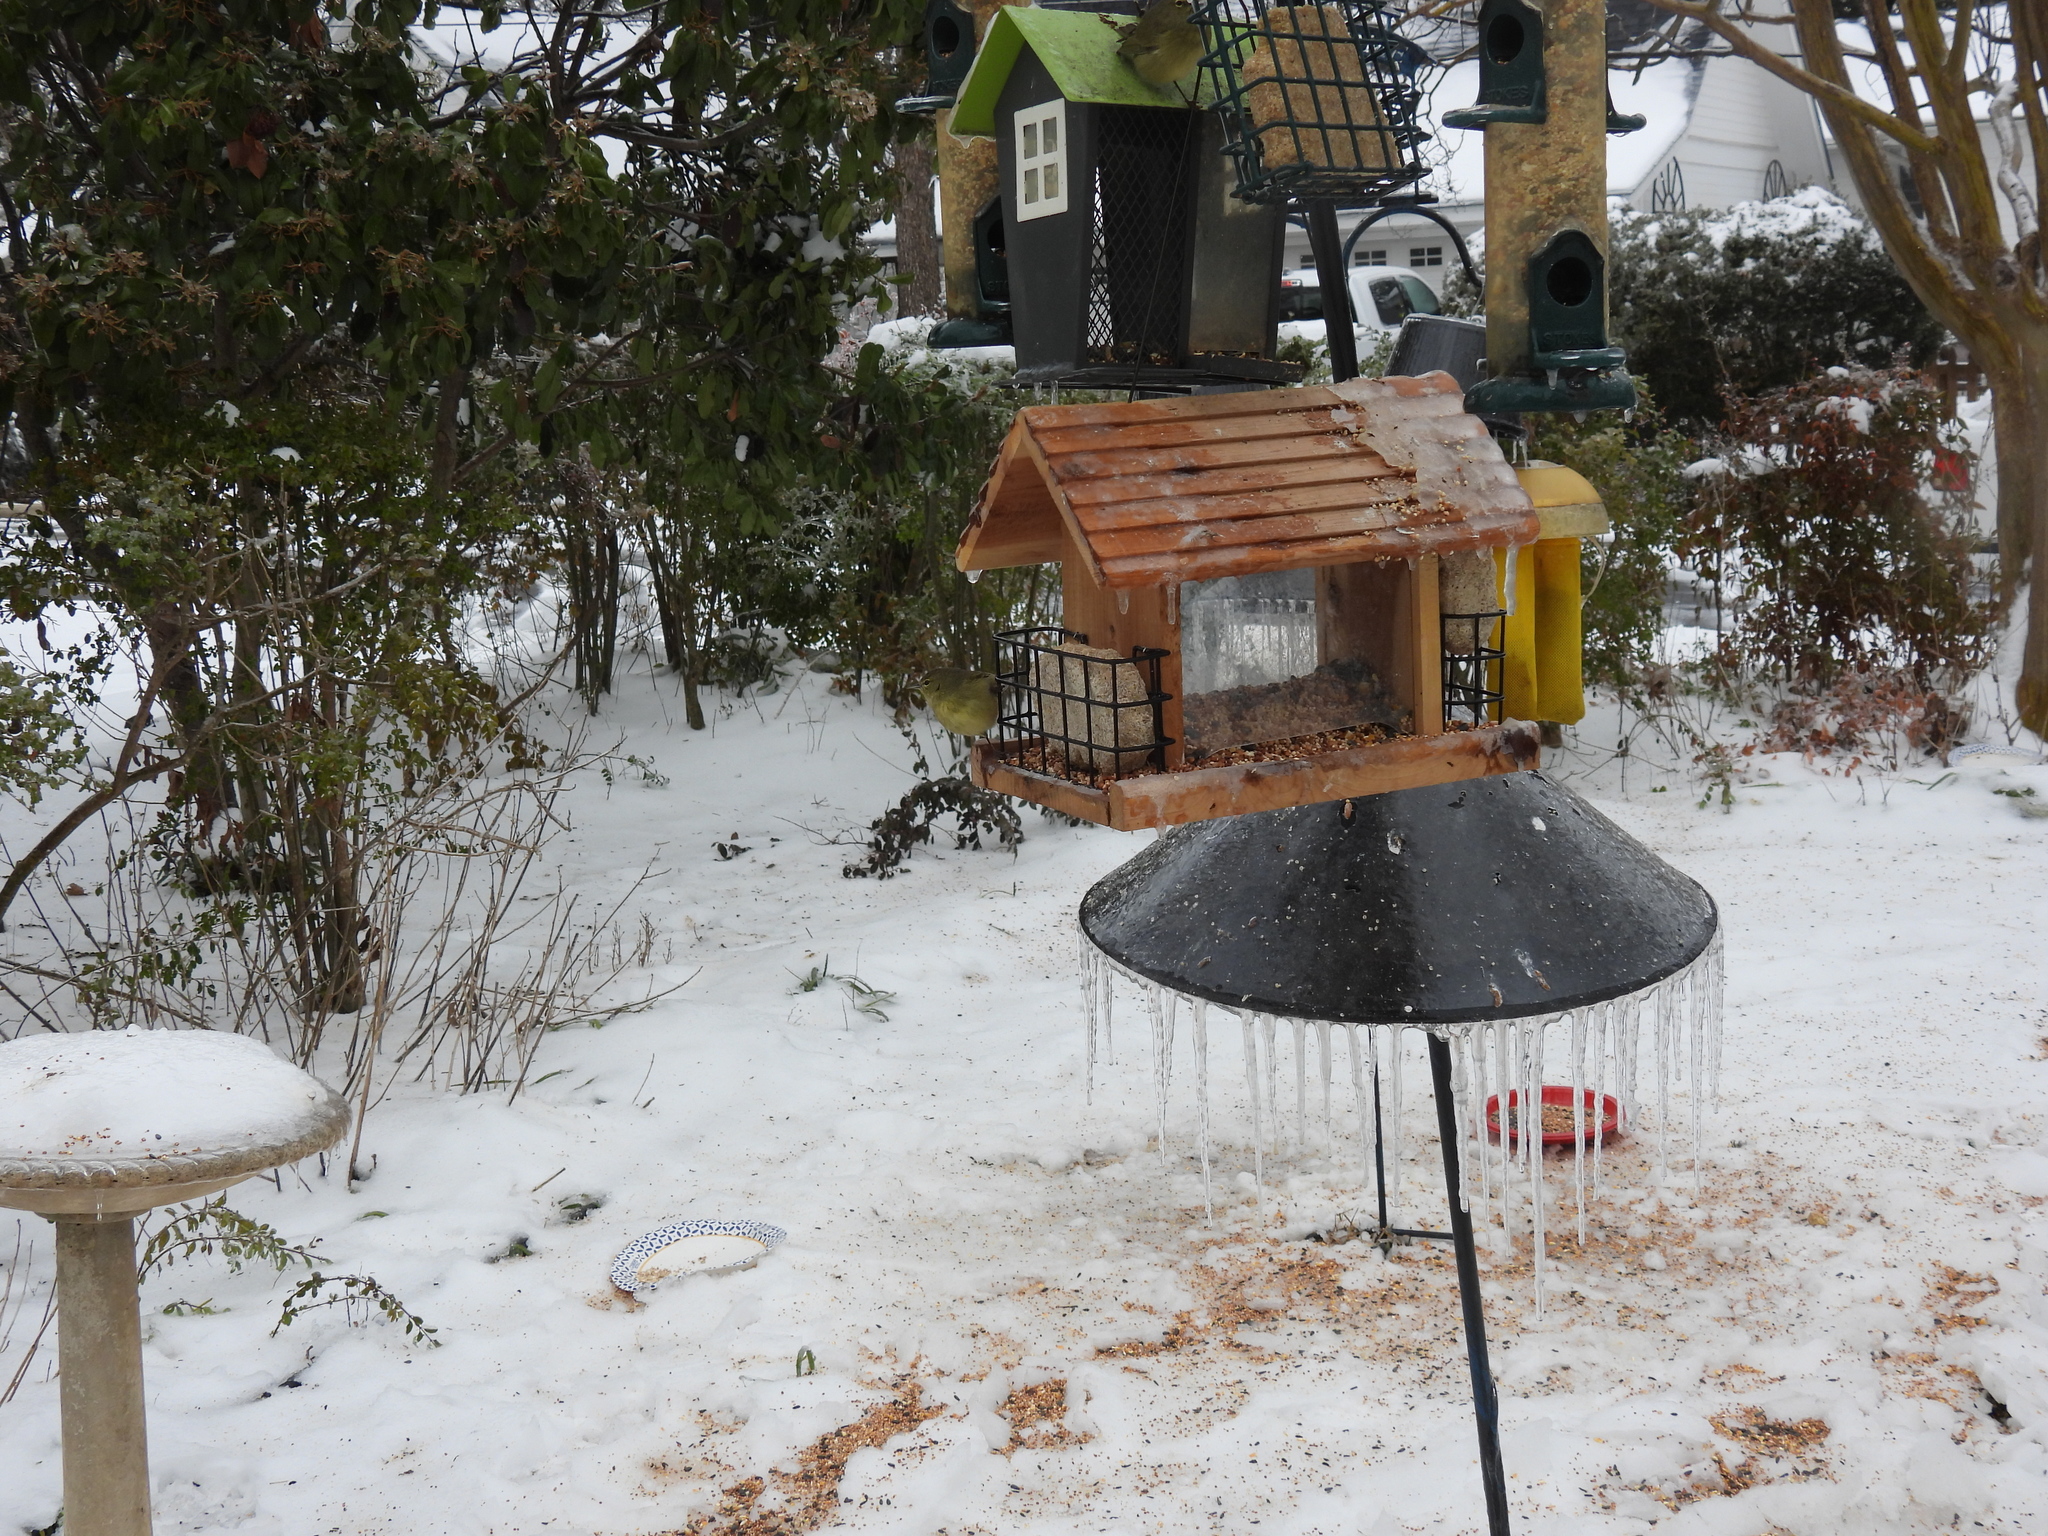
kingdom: Animalia
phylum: Chordata
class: Aves
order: Passeriformes
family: Parulidae
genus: Leiothlypis
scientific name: Leiothlypis celata
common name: Orange-crowned warbler
